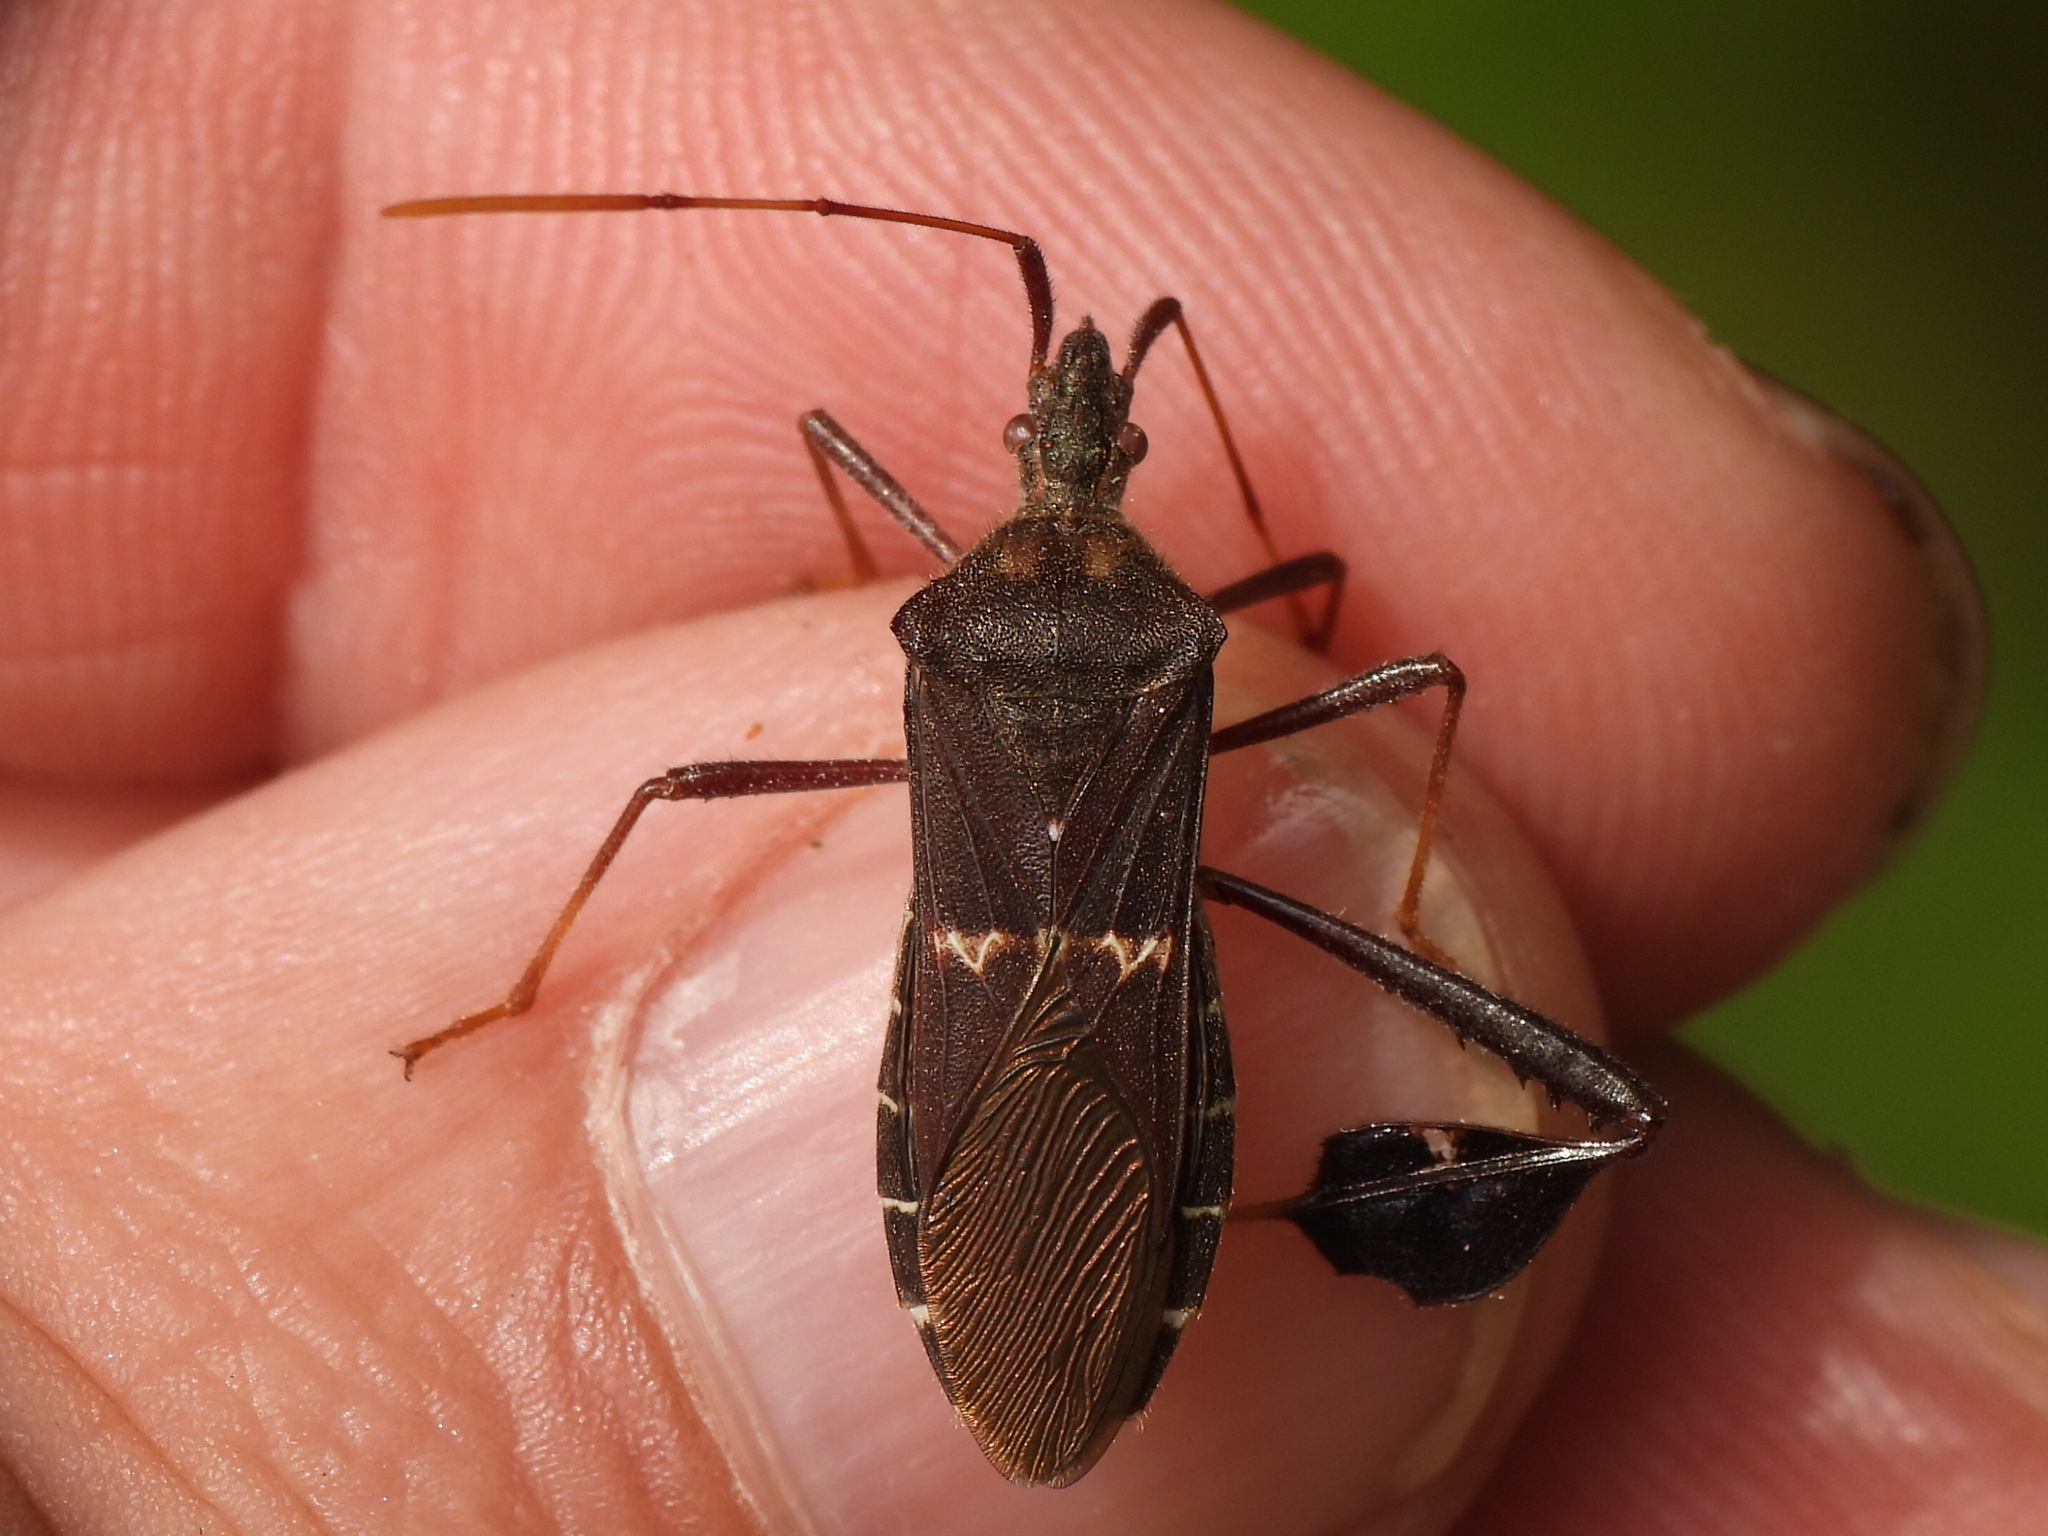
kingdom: Animalia
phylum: Arthropoda
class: Insecta
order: Hemiptera
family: Coreidae
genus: Leptoglossus
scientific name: Leptoglossus zonatus
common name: Large-legged bug
